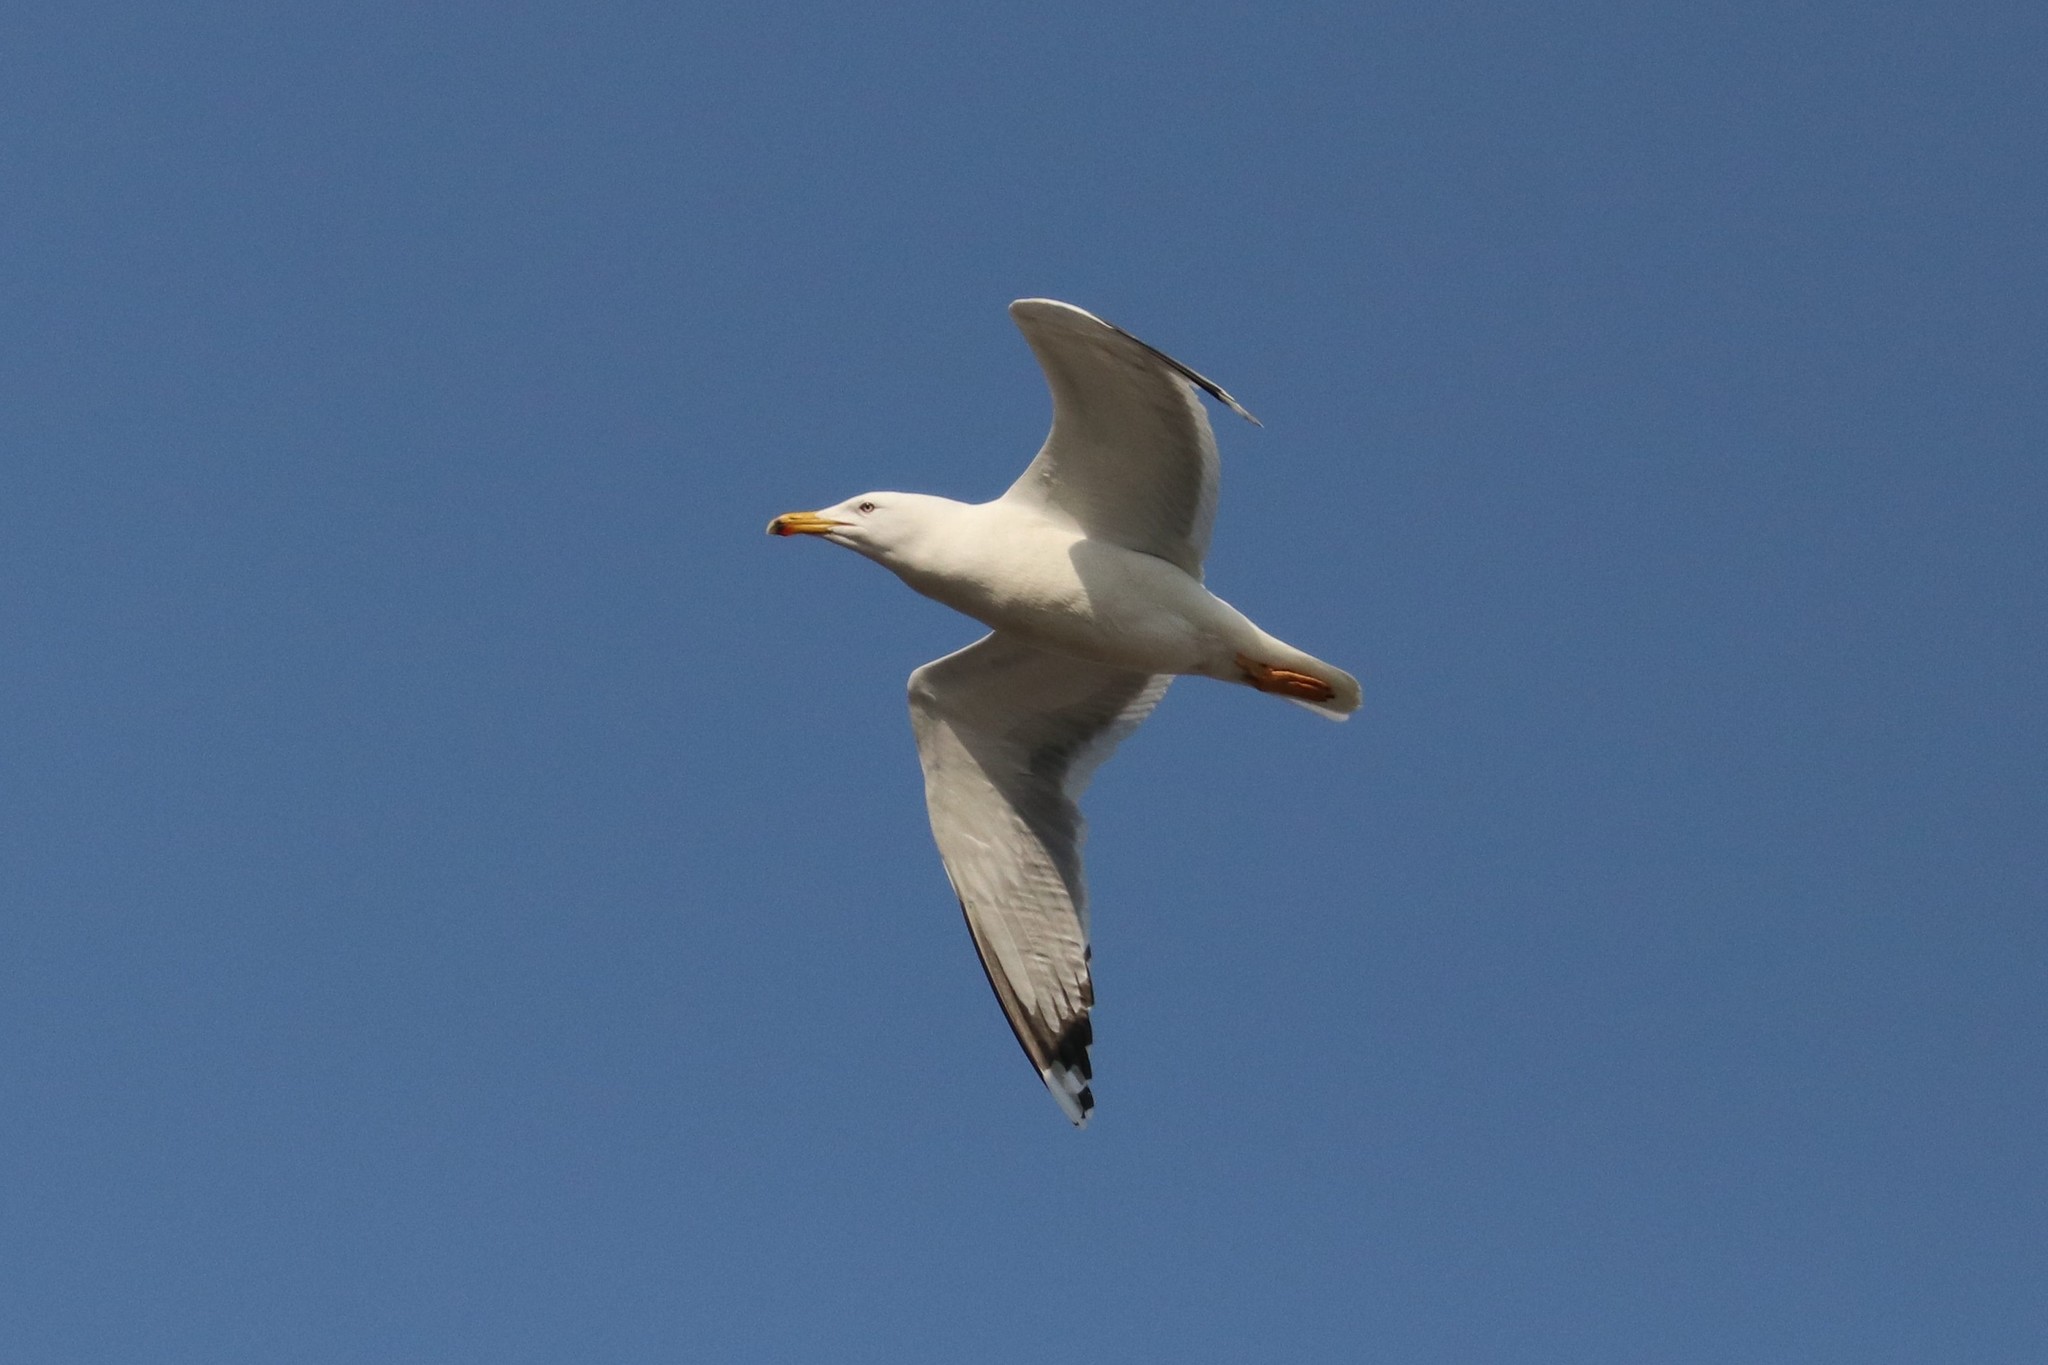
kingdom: Animalia
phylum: Chordata
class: Aves
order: Charadriiformes
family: Laridae
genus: Larus
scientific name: Larus argentatus
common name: Herring gull
